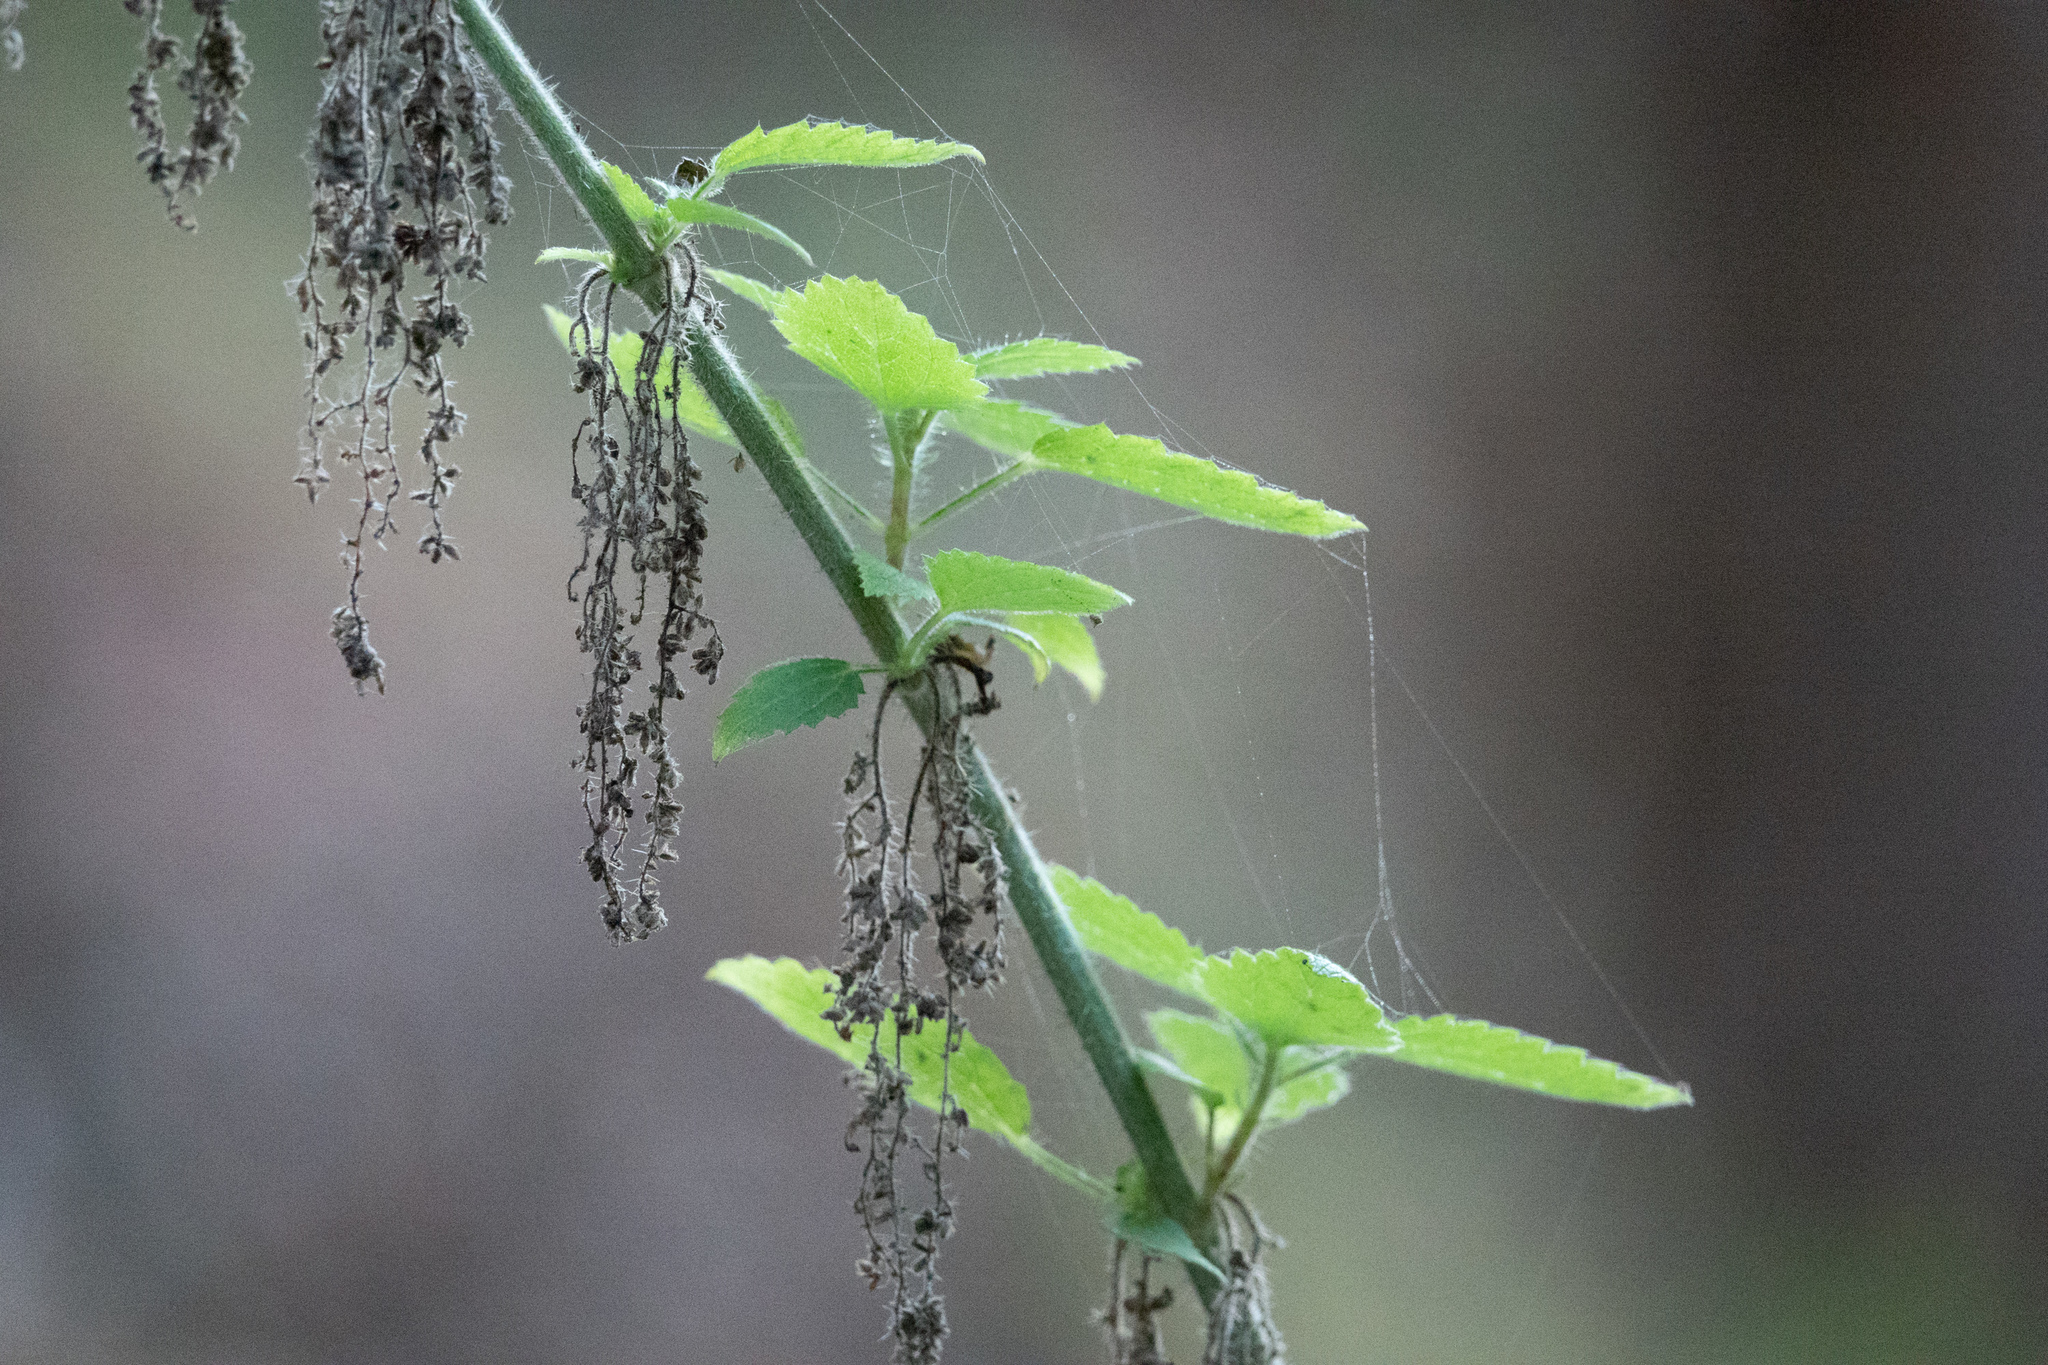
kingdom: Plantae
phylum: Tracheophyta
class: Magnoliopsida
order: Rosales
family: Urticaceae
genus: Urtica
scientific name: Urtica dioica
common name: Common nettle
